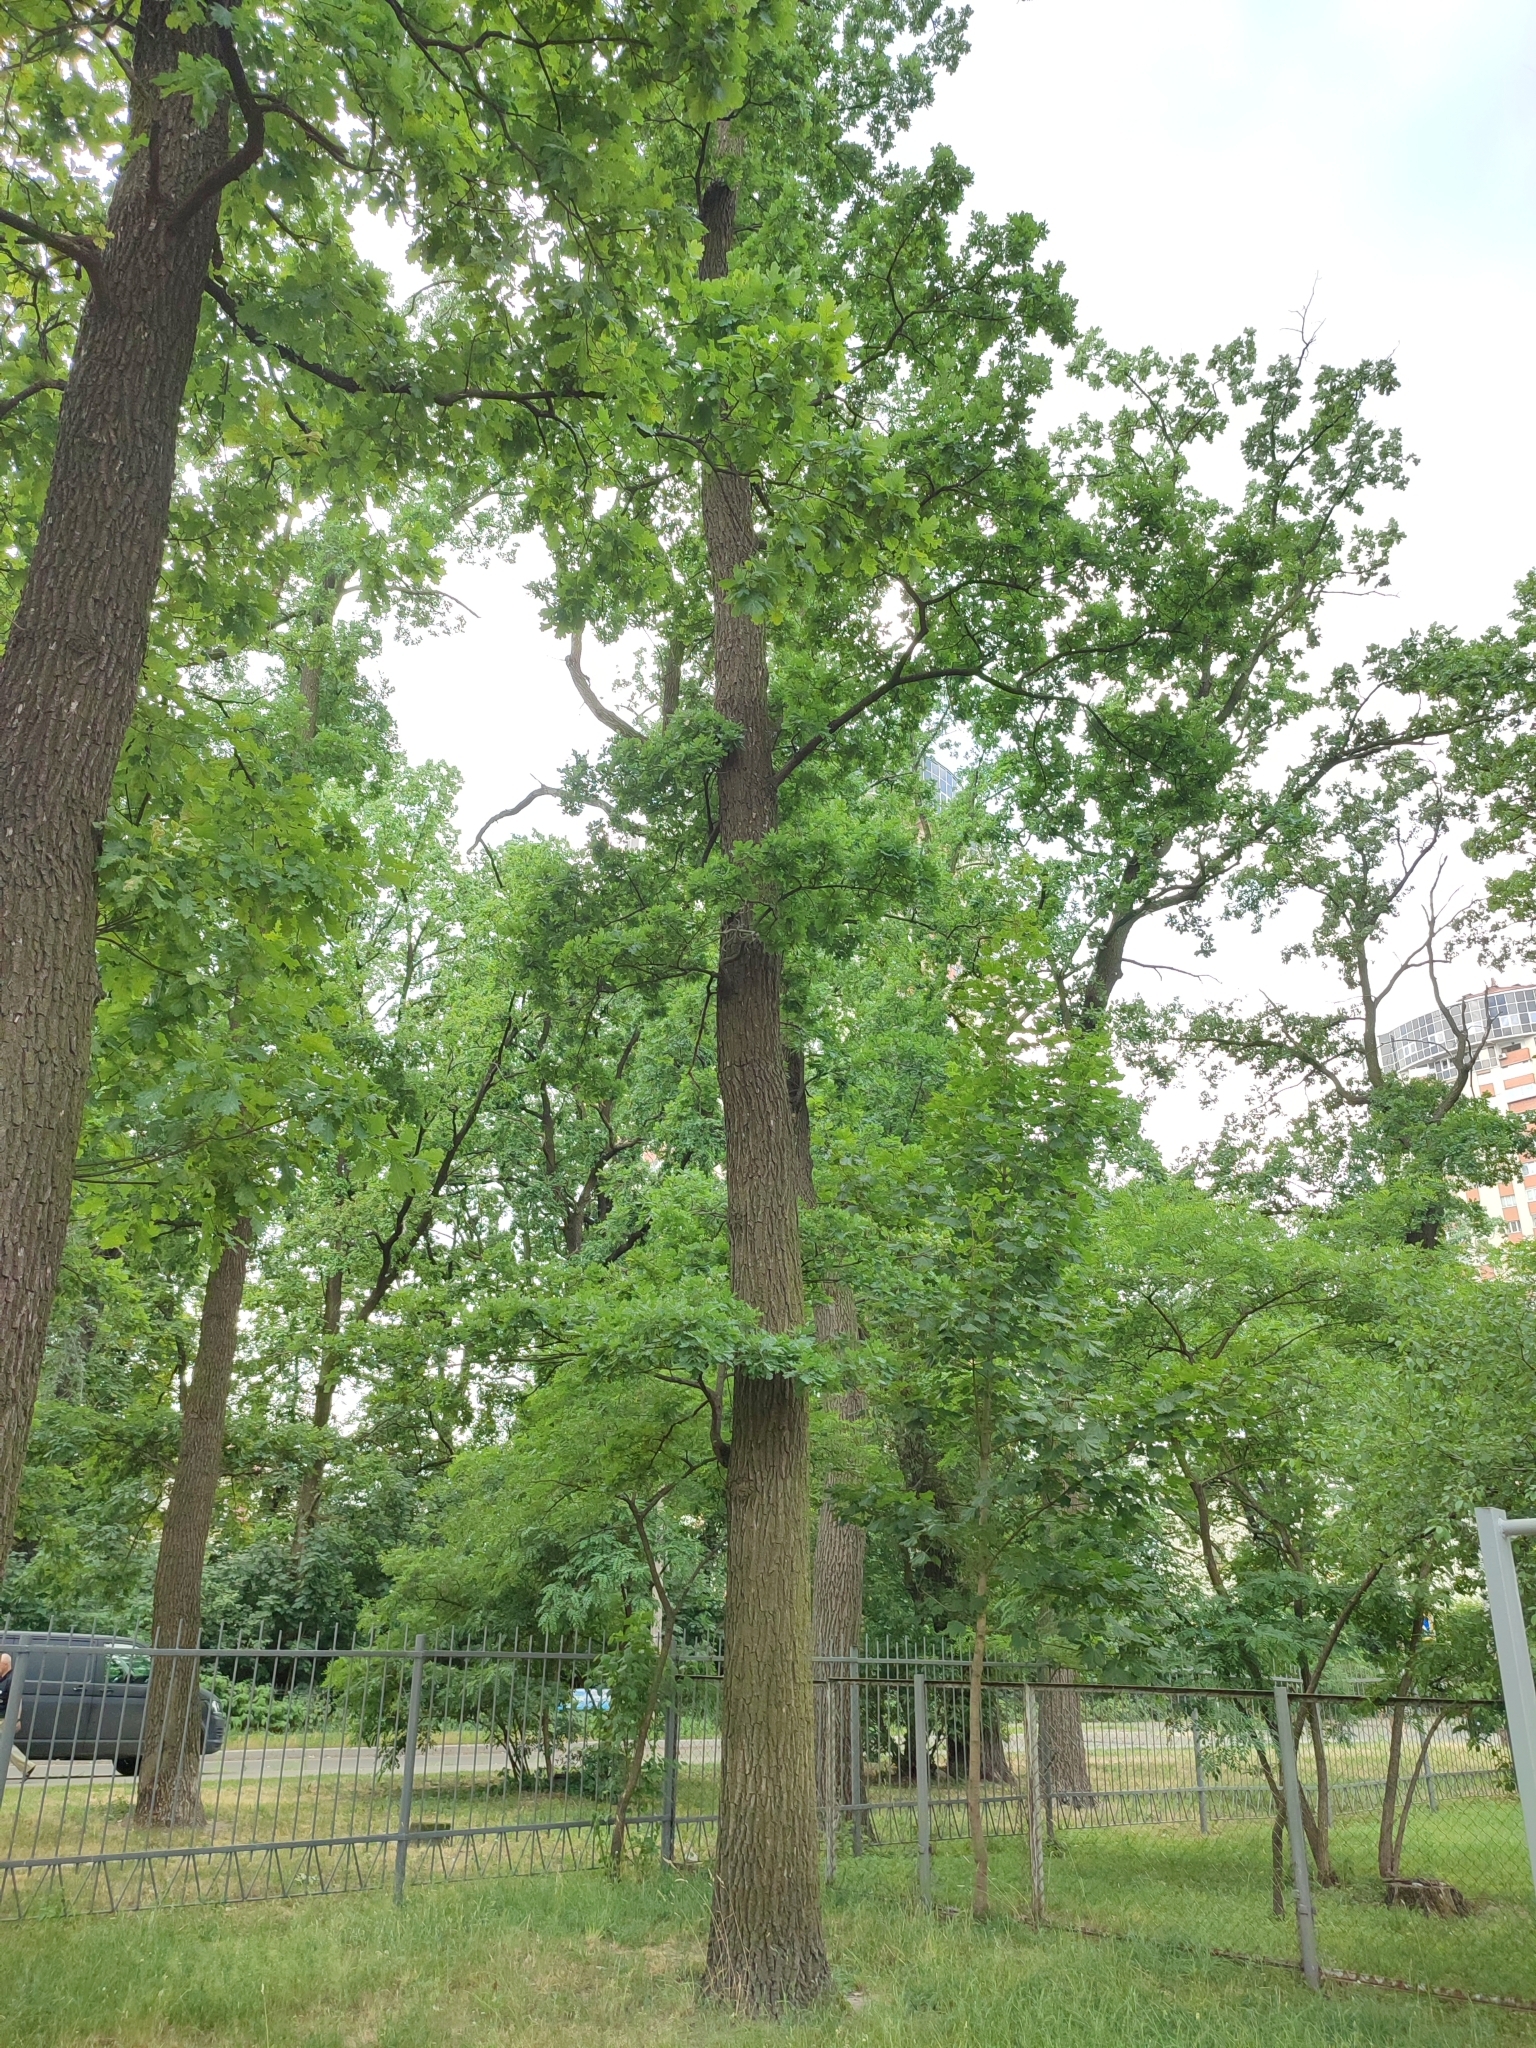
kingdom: Plantae
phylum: Tracheophyta
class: Magnoliopsida
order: Fagales
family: Fagaceae
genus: Quercus
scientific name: Quercus robur
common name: Pedunculate oak
